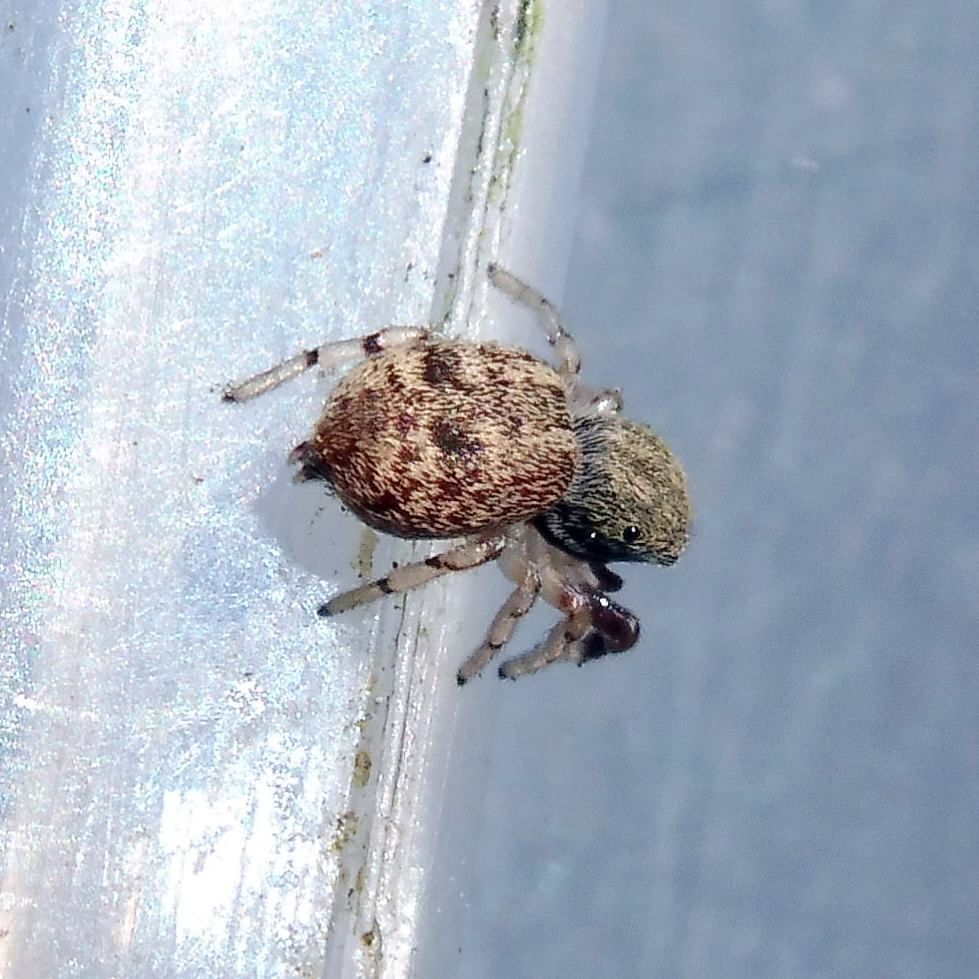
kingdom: Animalia
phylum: Arthropoda
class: Arachnida
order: Araneae
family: Salticidae
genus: Ballus
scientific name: Ballus chalybeius
